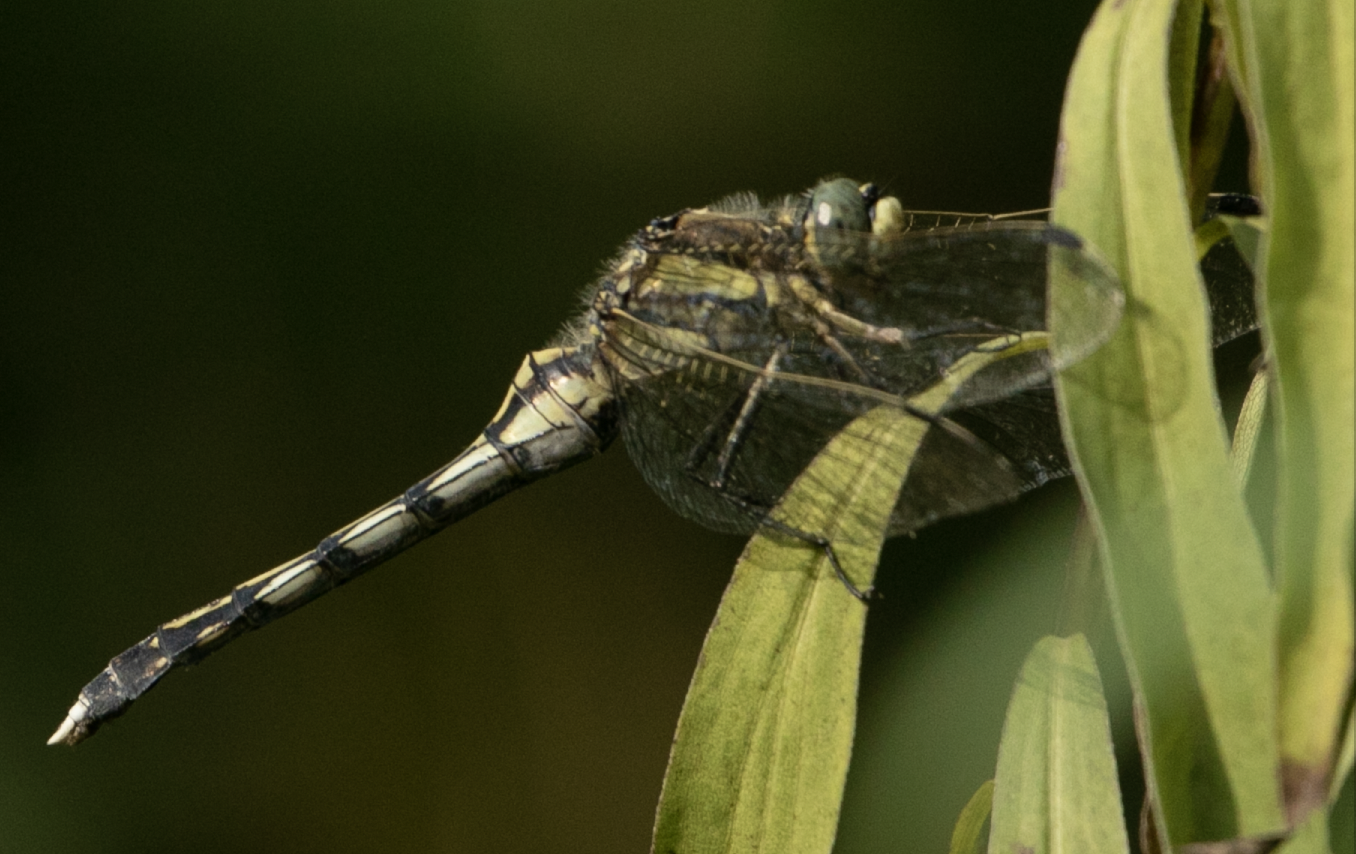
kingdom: Animalia
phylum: Arthropoda
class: Insecta
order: Odonata
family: Libellulidae
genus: Orthetrum
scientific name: Orthetrum albistylum
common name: White-tailed skimmer
